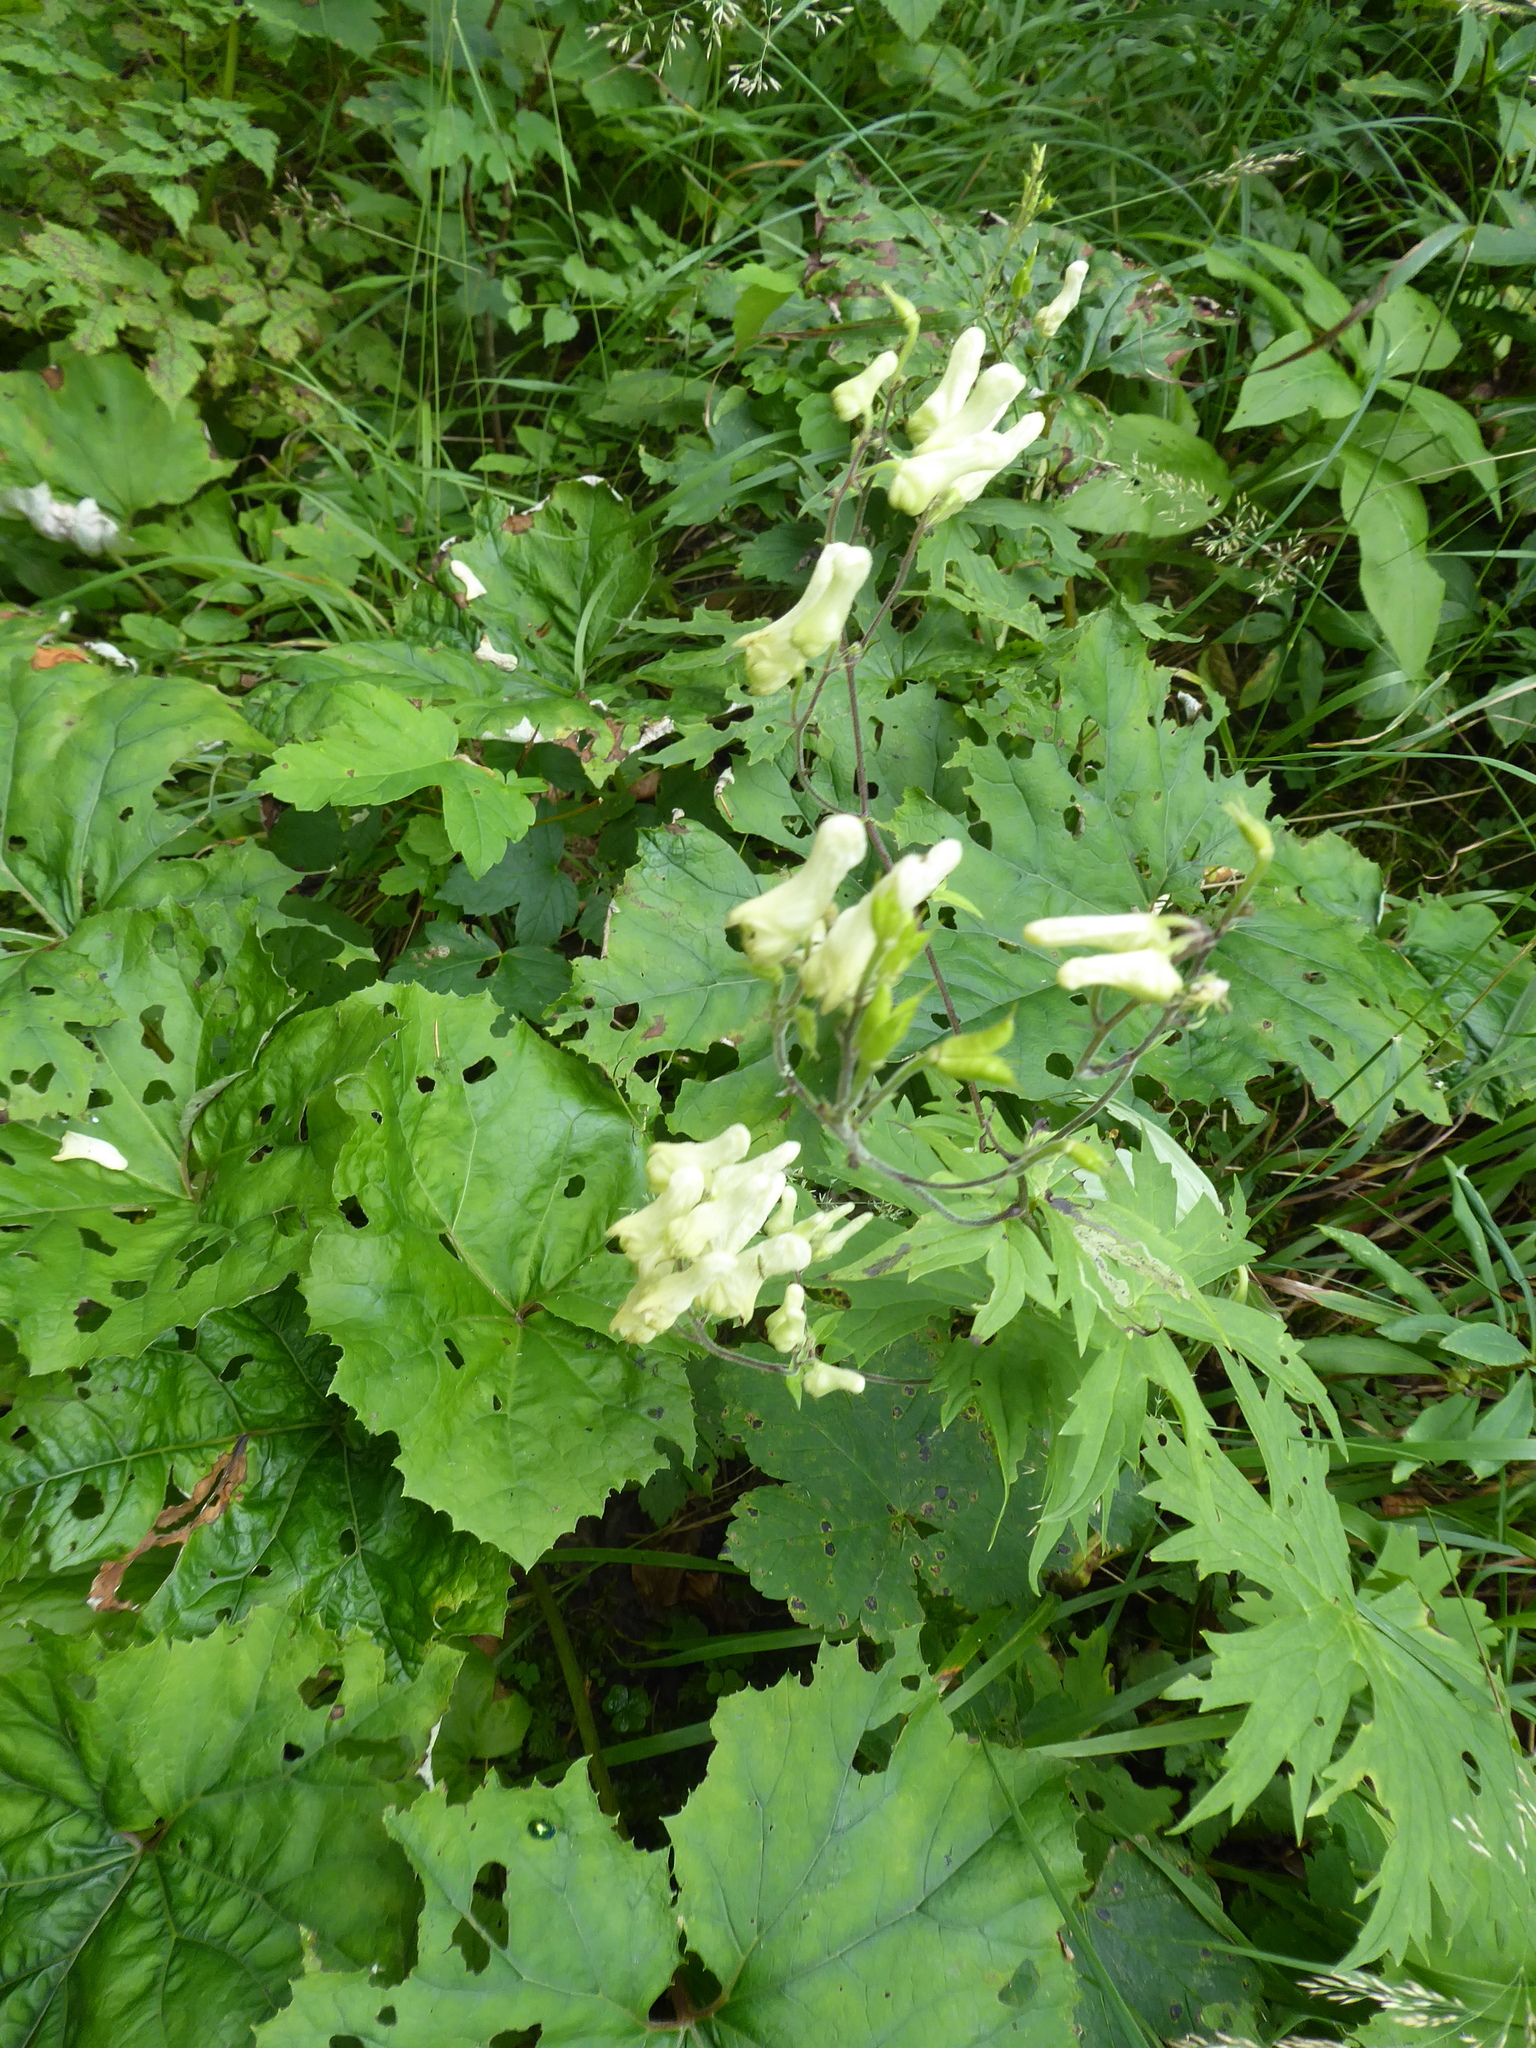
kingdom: Plantae
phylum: Tracheophyta
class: Magnoliopsida
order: Ranunculales
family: Ranunculaceae
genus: Aconitum
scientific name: Aconitum lycoctonum
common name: Wolf's-bane
